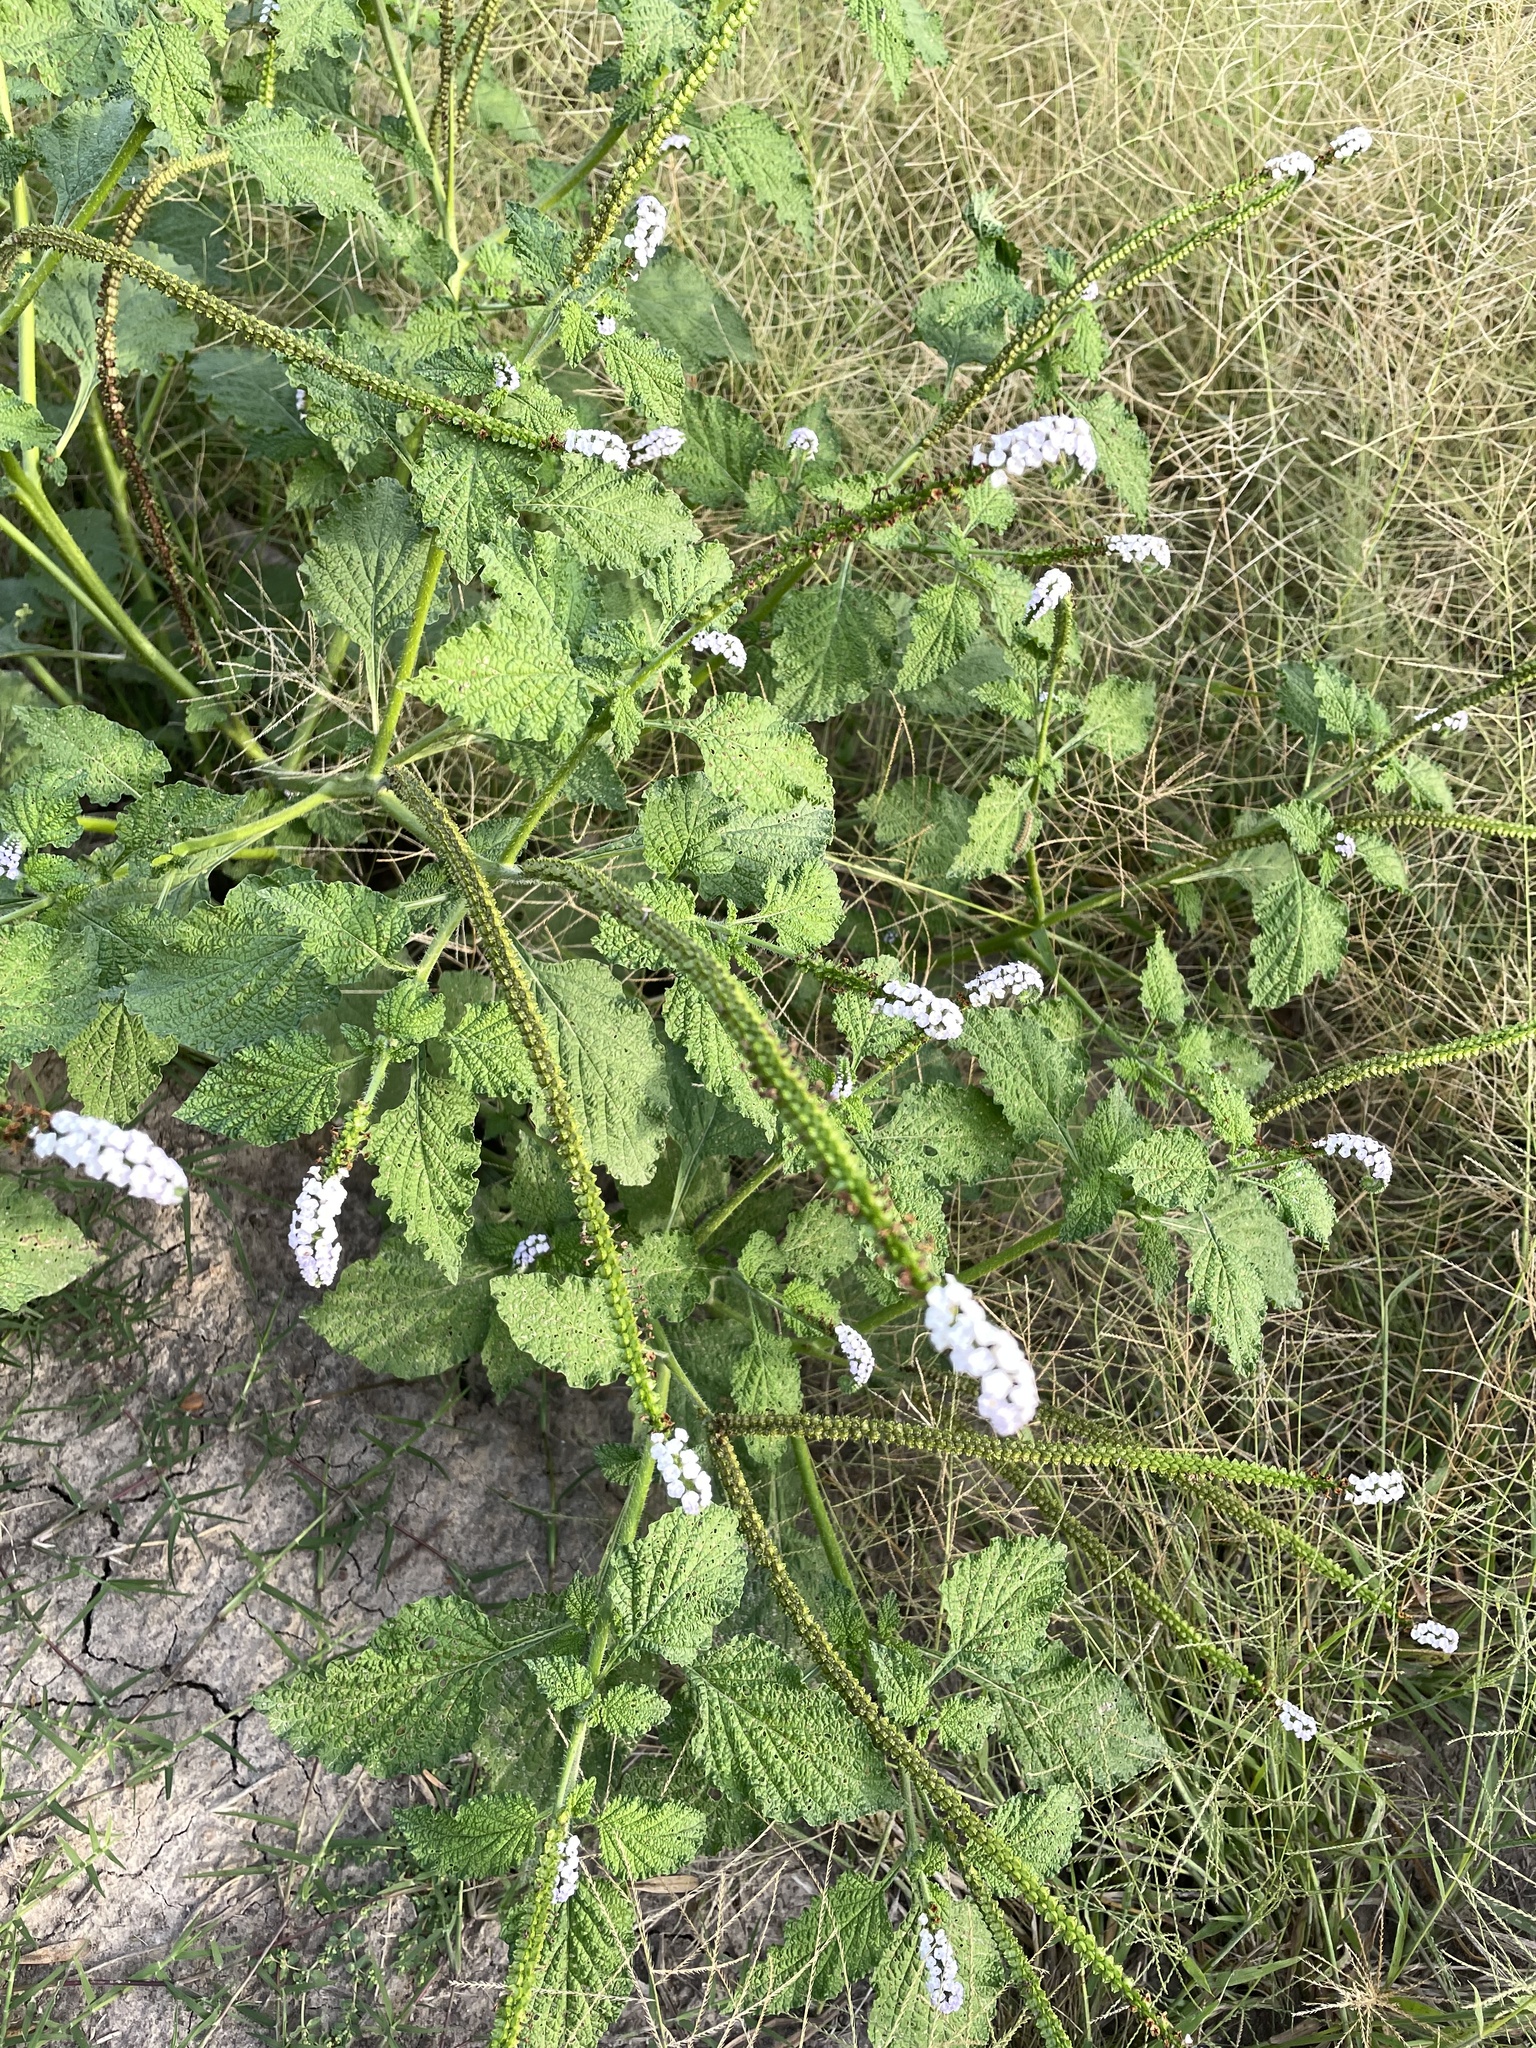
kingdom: Plantae
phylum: Tracheophyta
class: Magnoliopsida
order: Boraginales
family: Heliotropiaceae
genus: Heliotropium
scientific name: Heliotropium indicum
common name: Indian heliotrope
